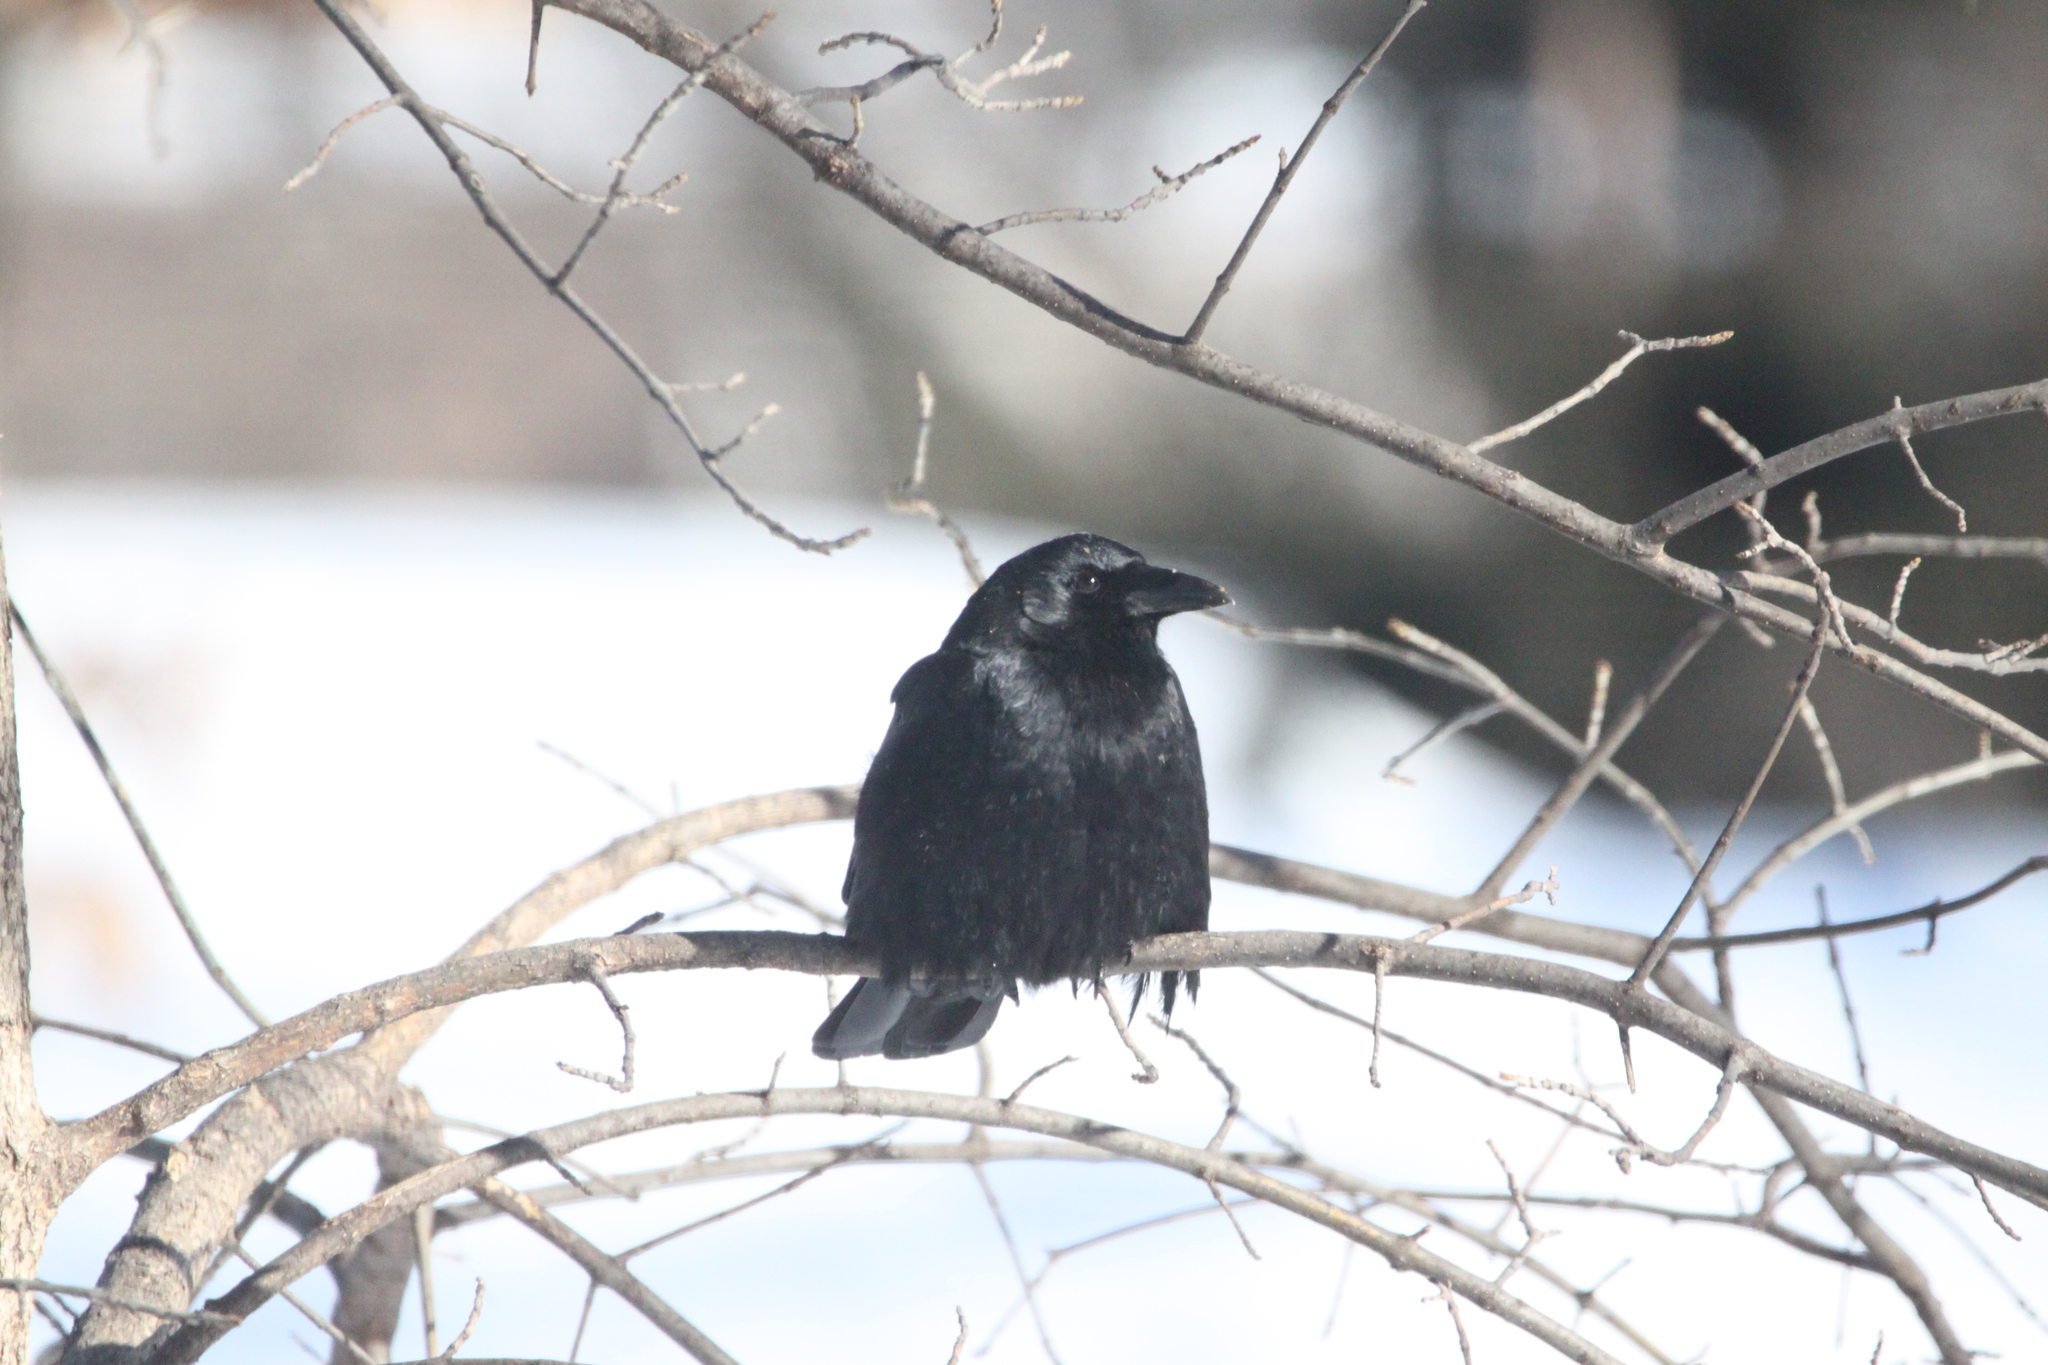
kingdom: Animalia
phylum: Chordata
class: Aves
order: Passeriformes
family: Corvidae
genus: Corvus
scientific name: Corvus brachyrhynchos
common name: American crow
